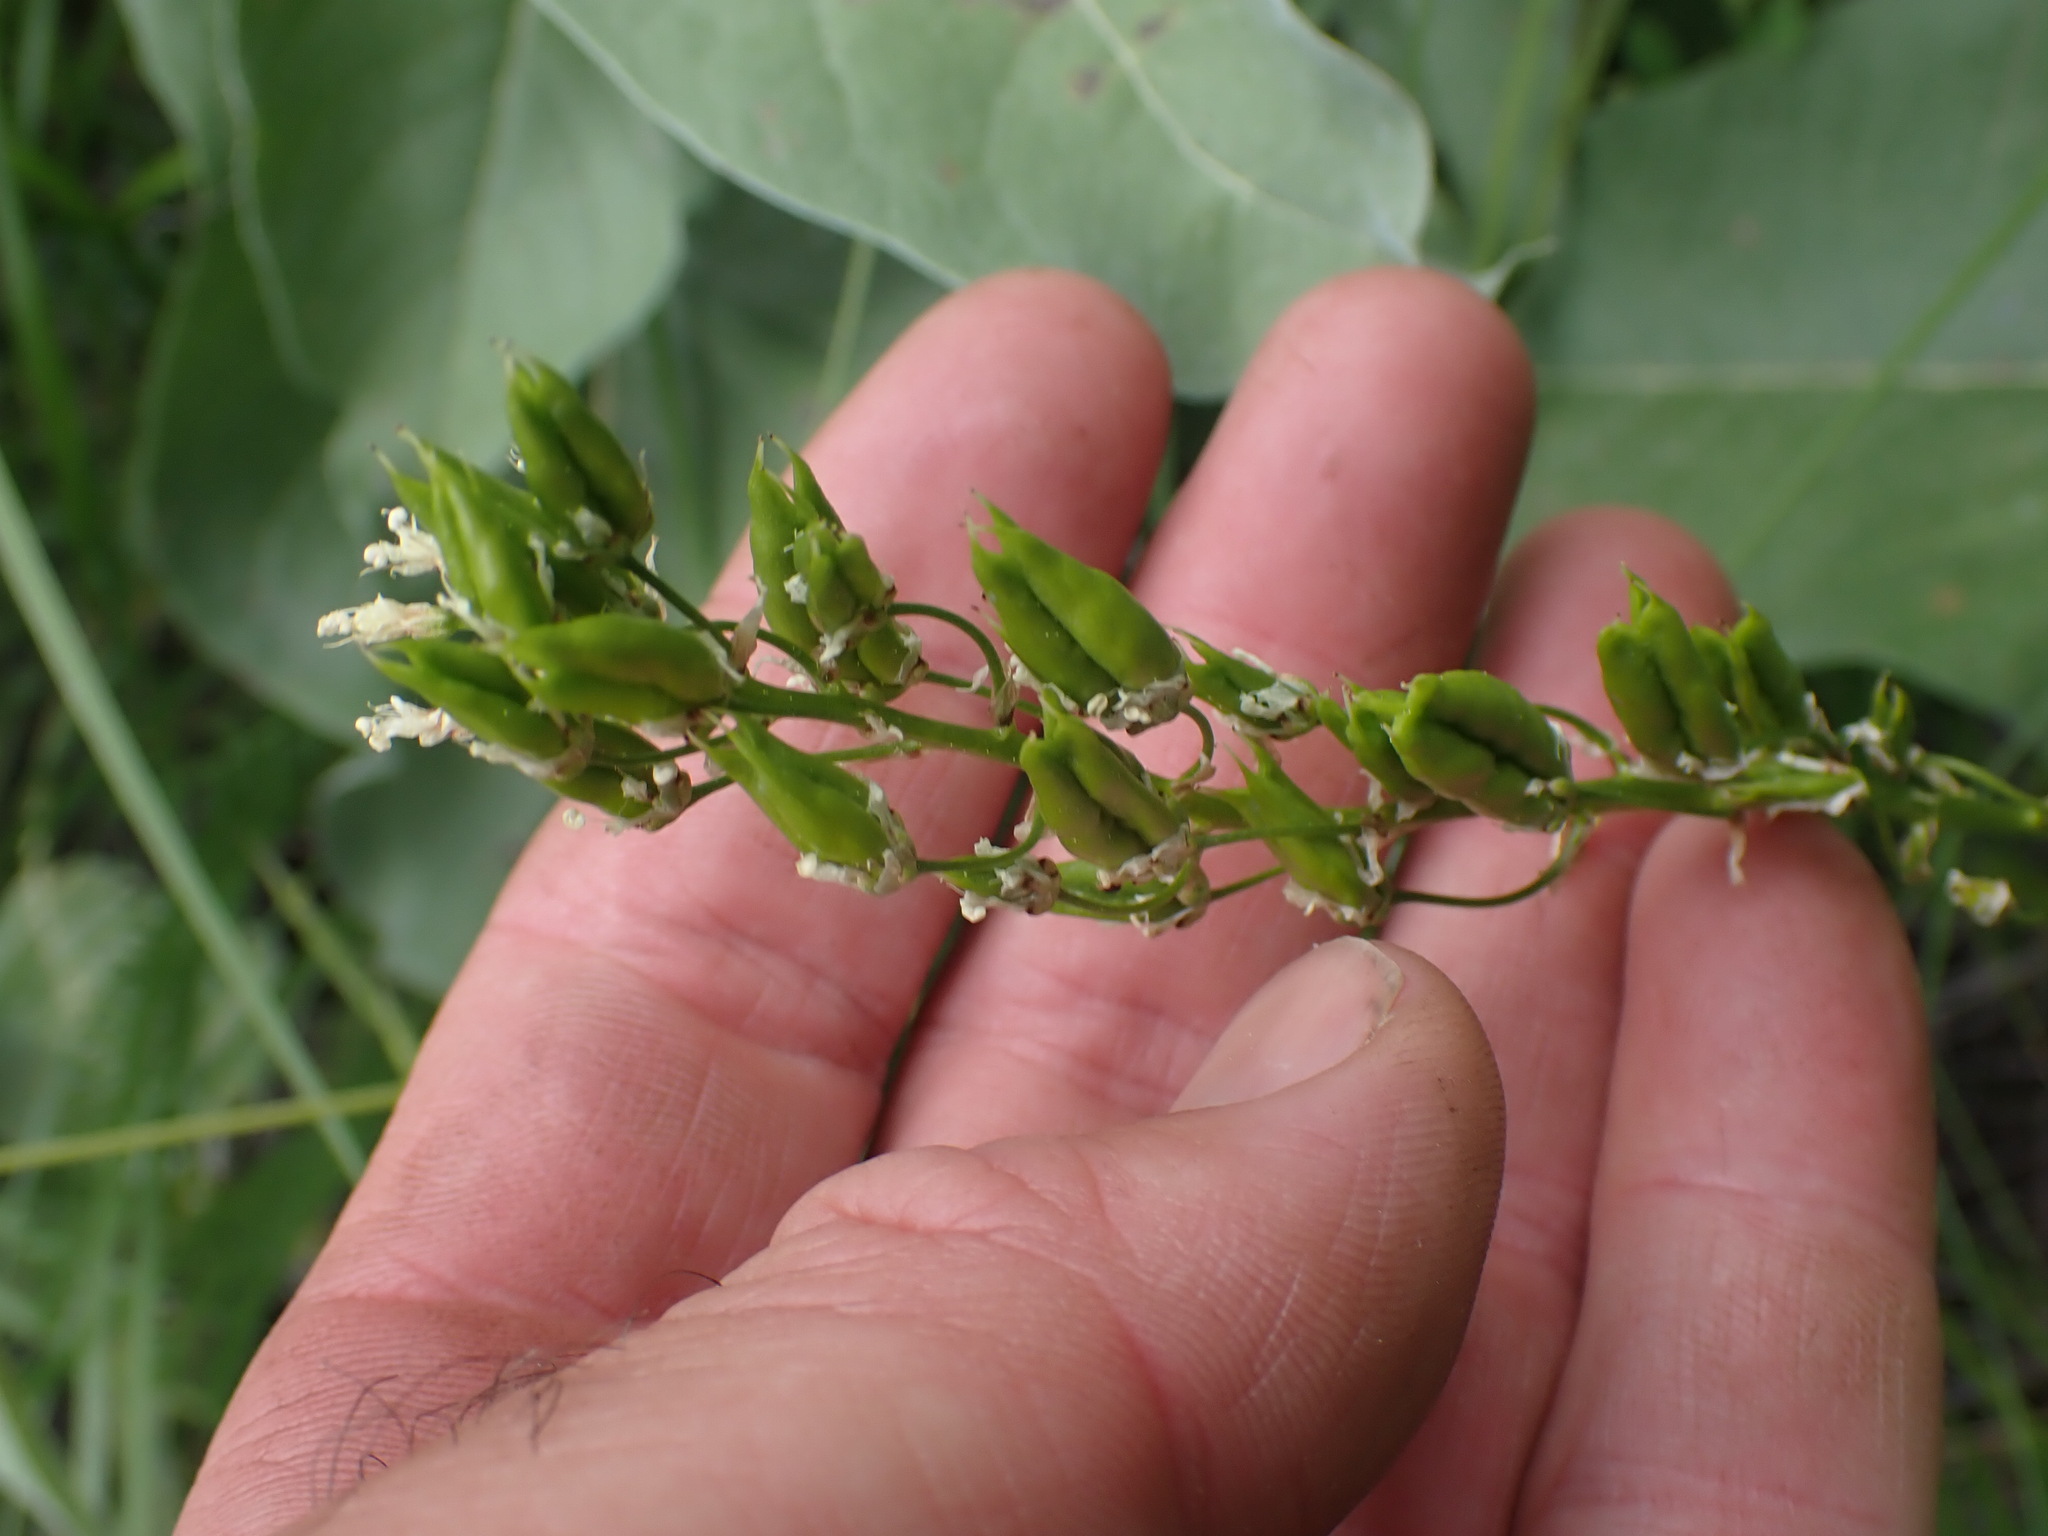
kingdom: Plantae
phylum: Tracheophyta
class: Liliopsida
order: Liliales
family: Melanthiaceae
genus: Toxicoscordion
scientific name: Toxicoscordion venenosum
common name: Meadow death camas
